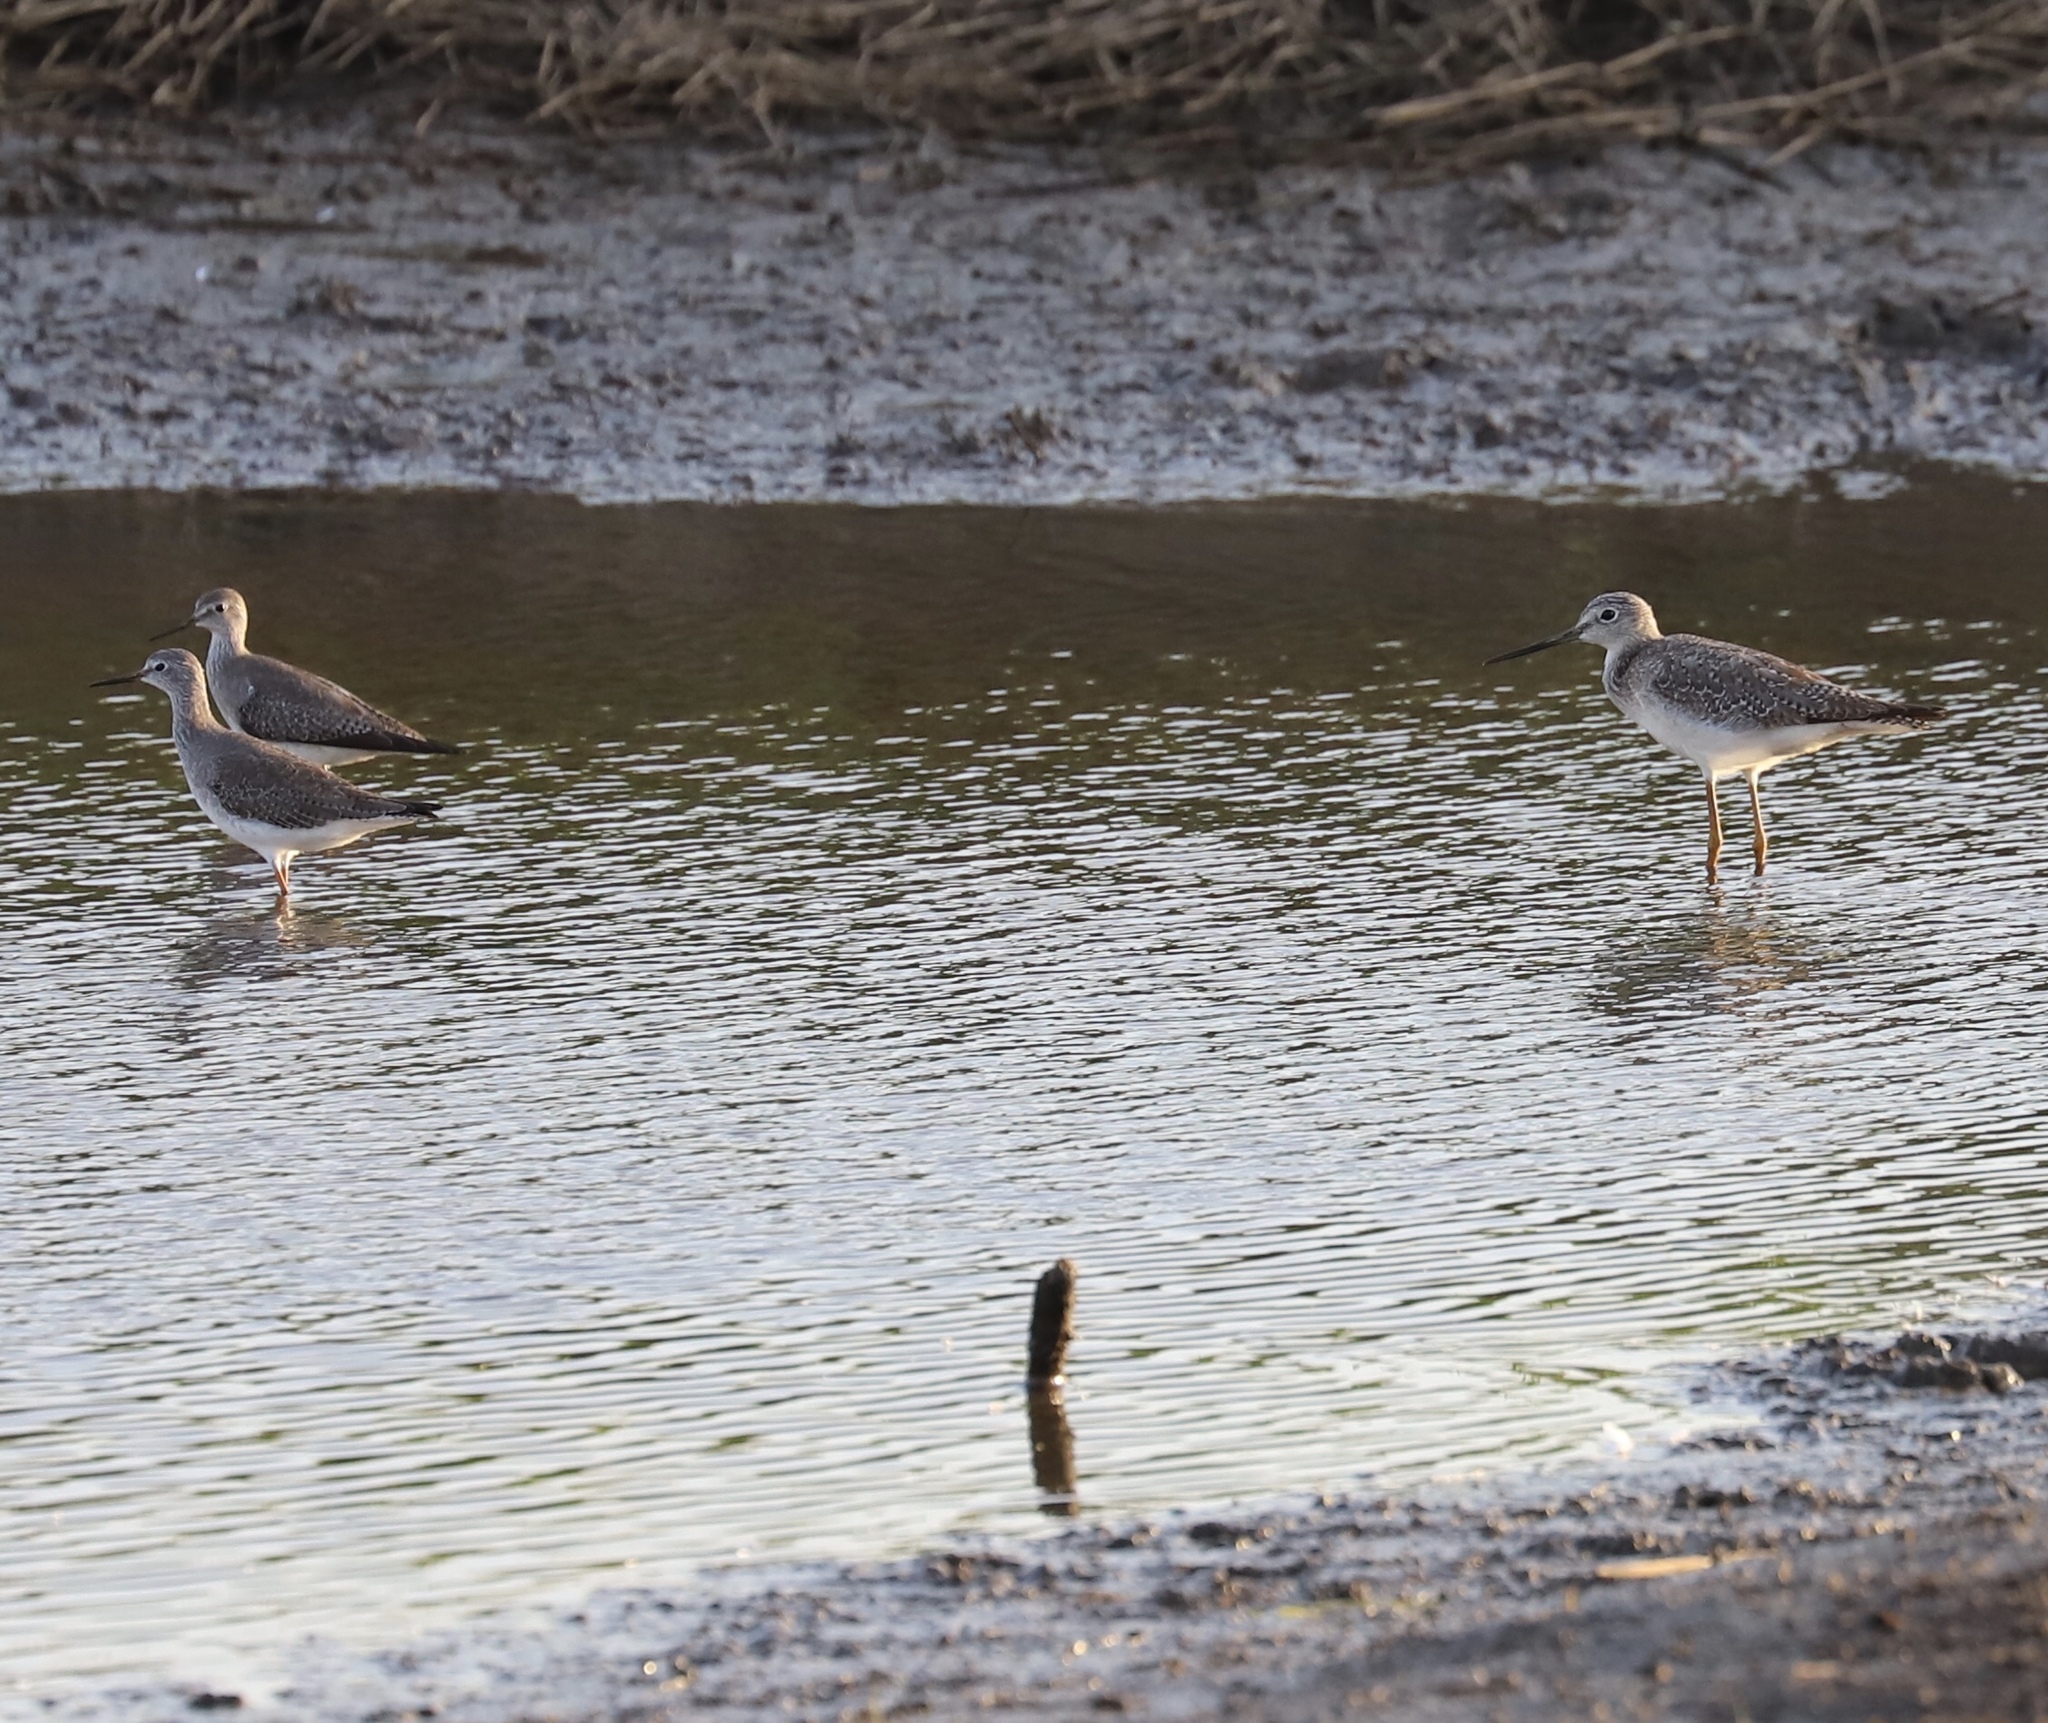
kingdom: Animalia
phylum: Chordata
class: Aves
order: Charadriiformes
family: Scolopacidae
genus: Tringa
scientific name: Tringa flavipes
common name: Lesser yellowlegs
